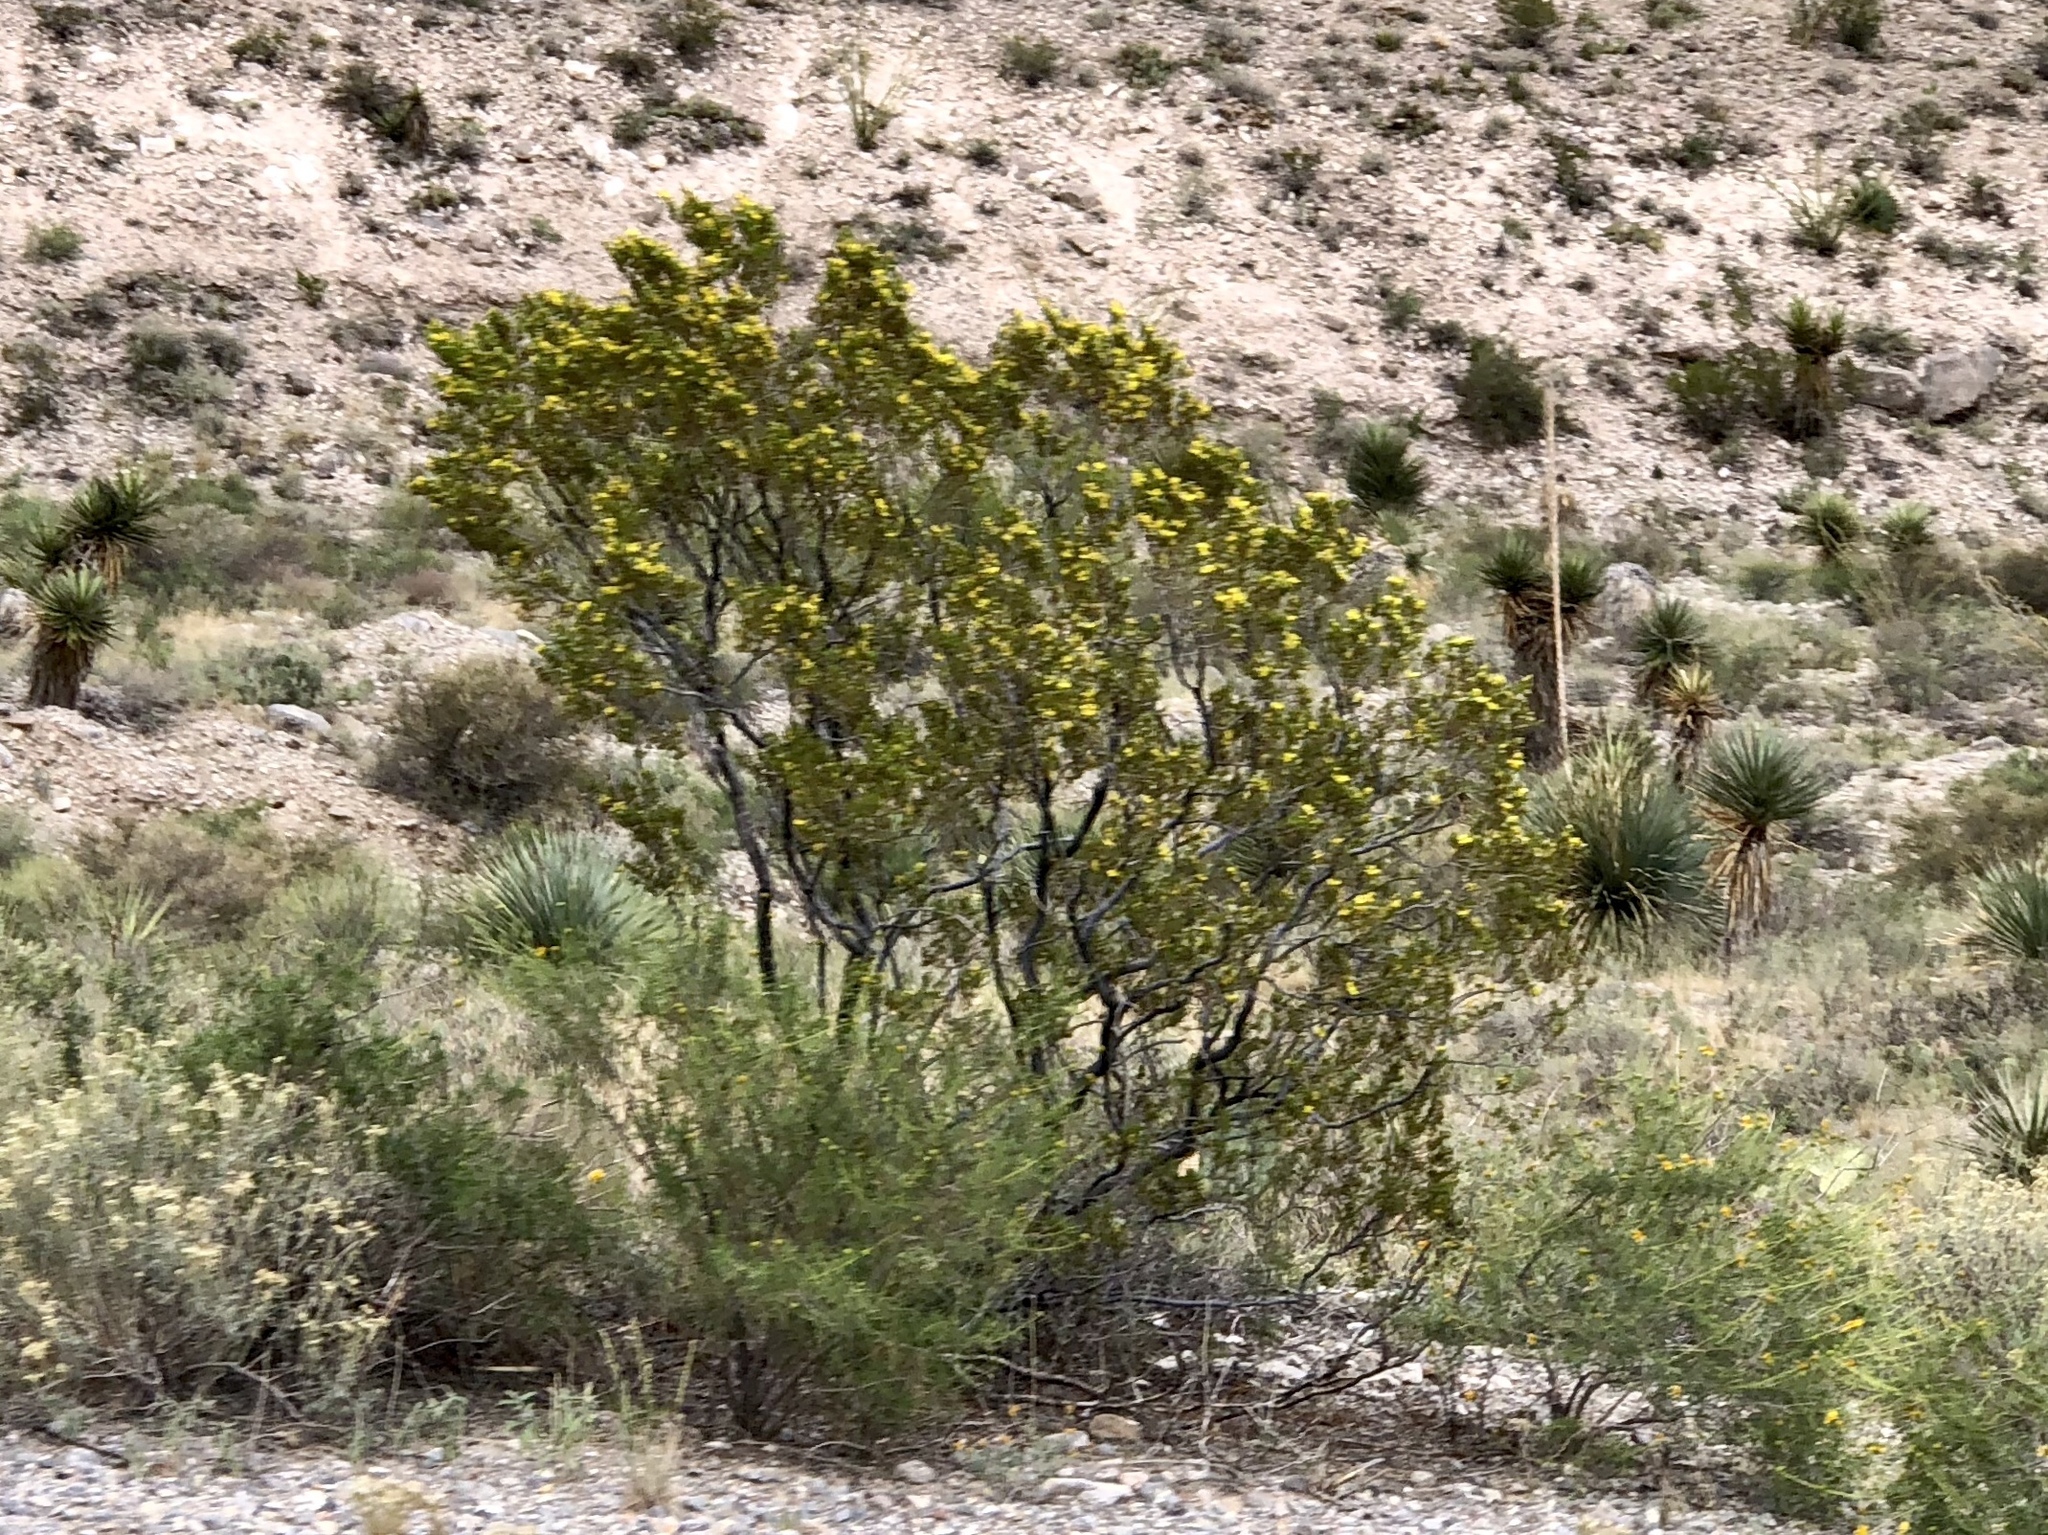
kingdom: Plantae
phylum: Tracheophyta
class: Magnoliopsida
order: Zygophyllales
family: Zygophyllaceae
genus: Larrea
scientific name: Larrea tridentata
